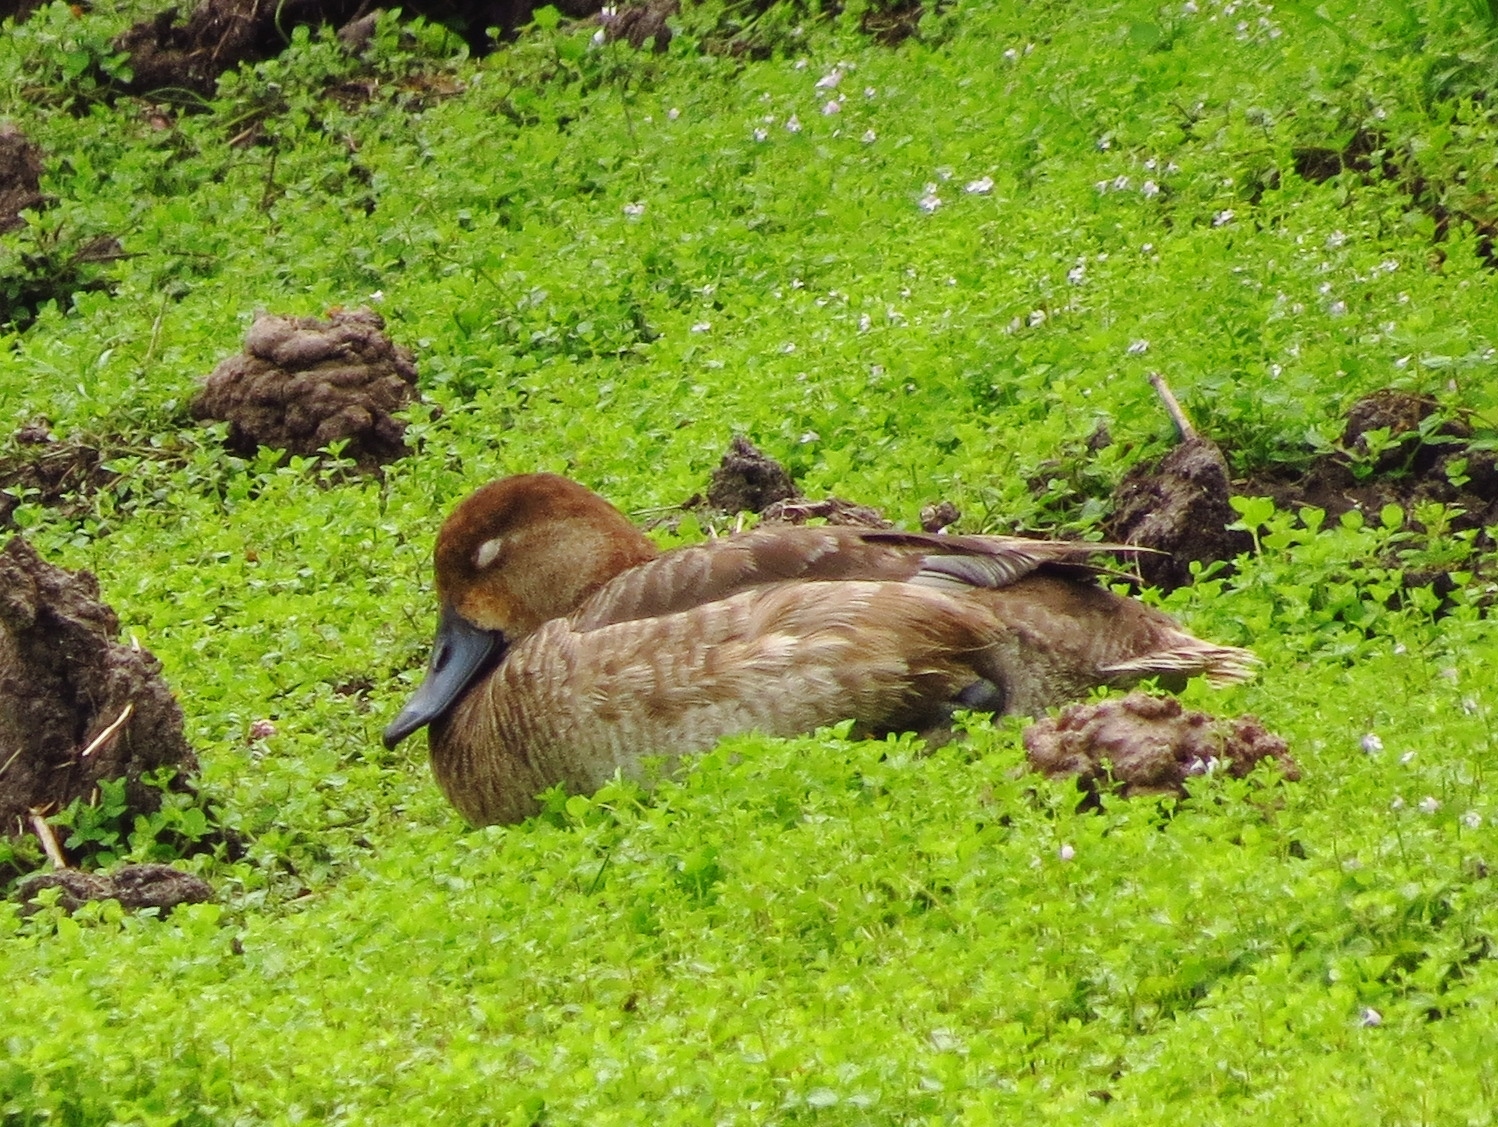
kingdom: Animalia
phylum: Chordata
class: Aves
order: Anseriformes
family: Anatidae
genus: Aythya
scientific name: Aythya americana
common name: Redhead
